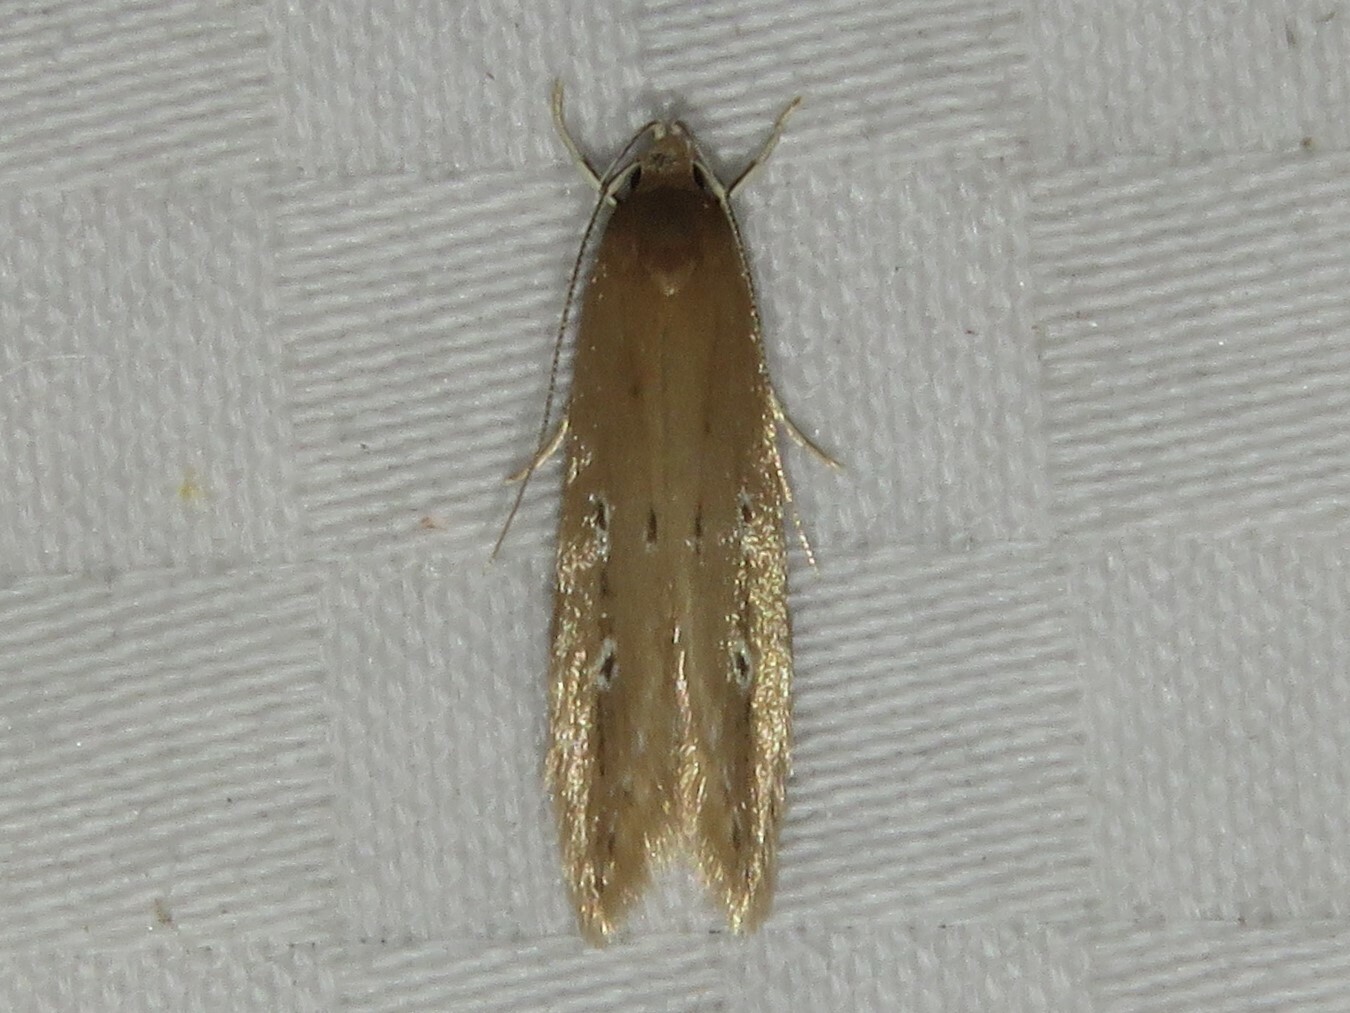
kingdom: Animalia
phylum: Arthropoda
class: Insecta
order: Lepidoptera
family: Cosmopterigidae
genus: Limnaecia
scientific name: Limnaecia phragmitella
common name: Bulrush cosmet
